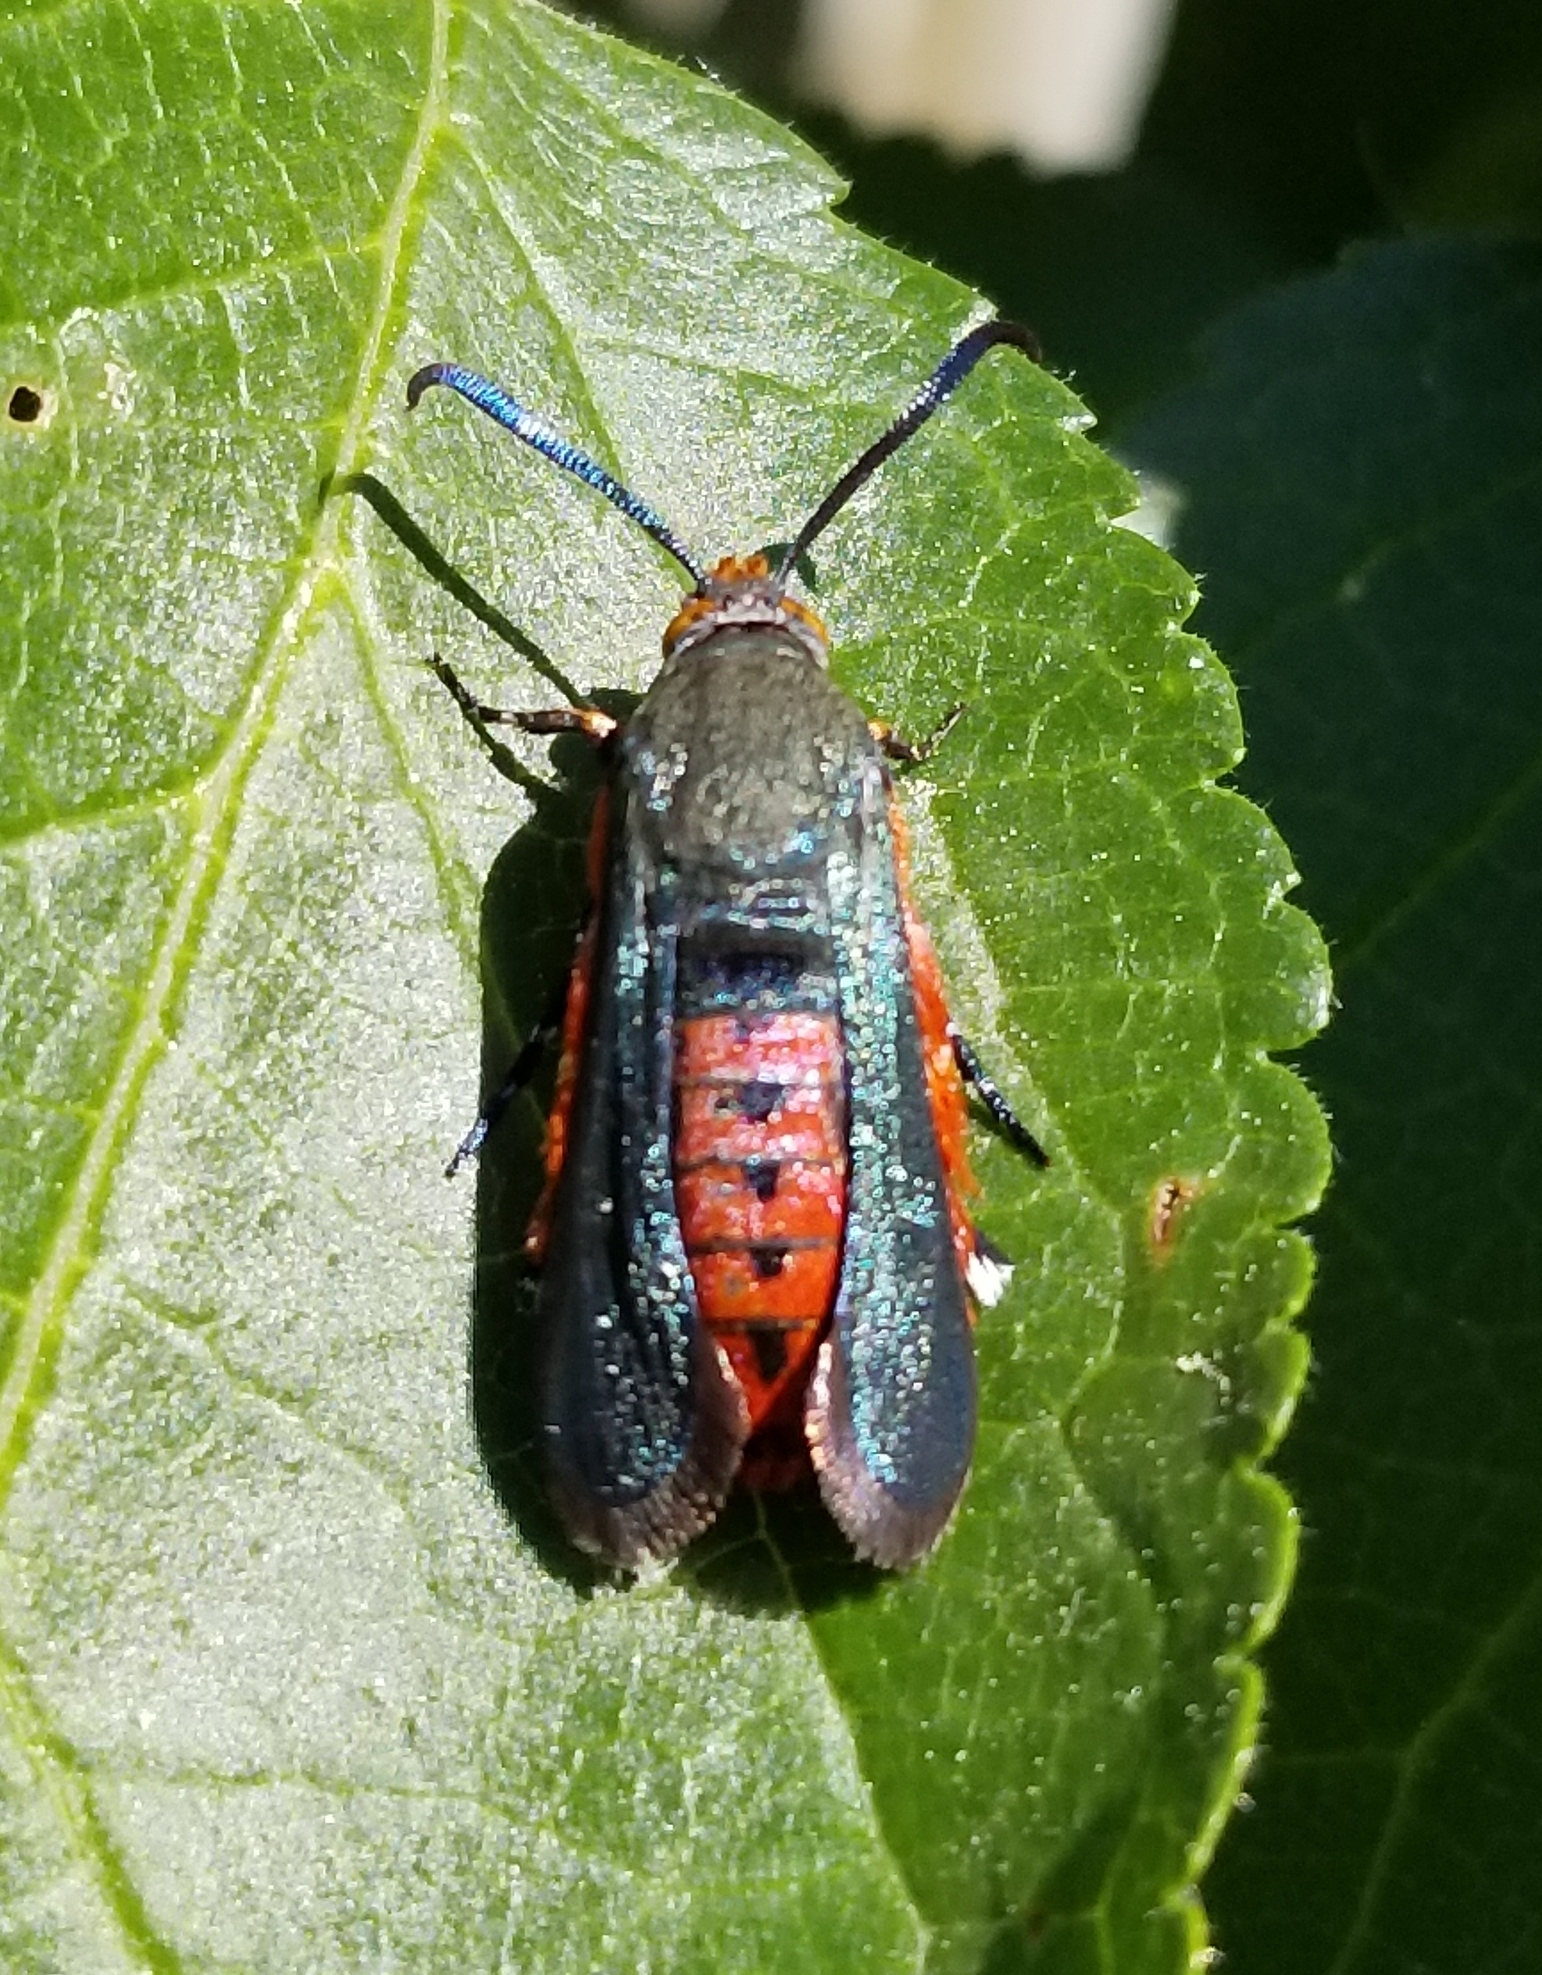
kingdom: Animalia
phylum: Arthropoda
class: Insecta
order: Lepidoptera
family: Sesiidae
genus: Eichlinia
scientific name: Eichlinia cucurbitae
